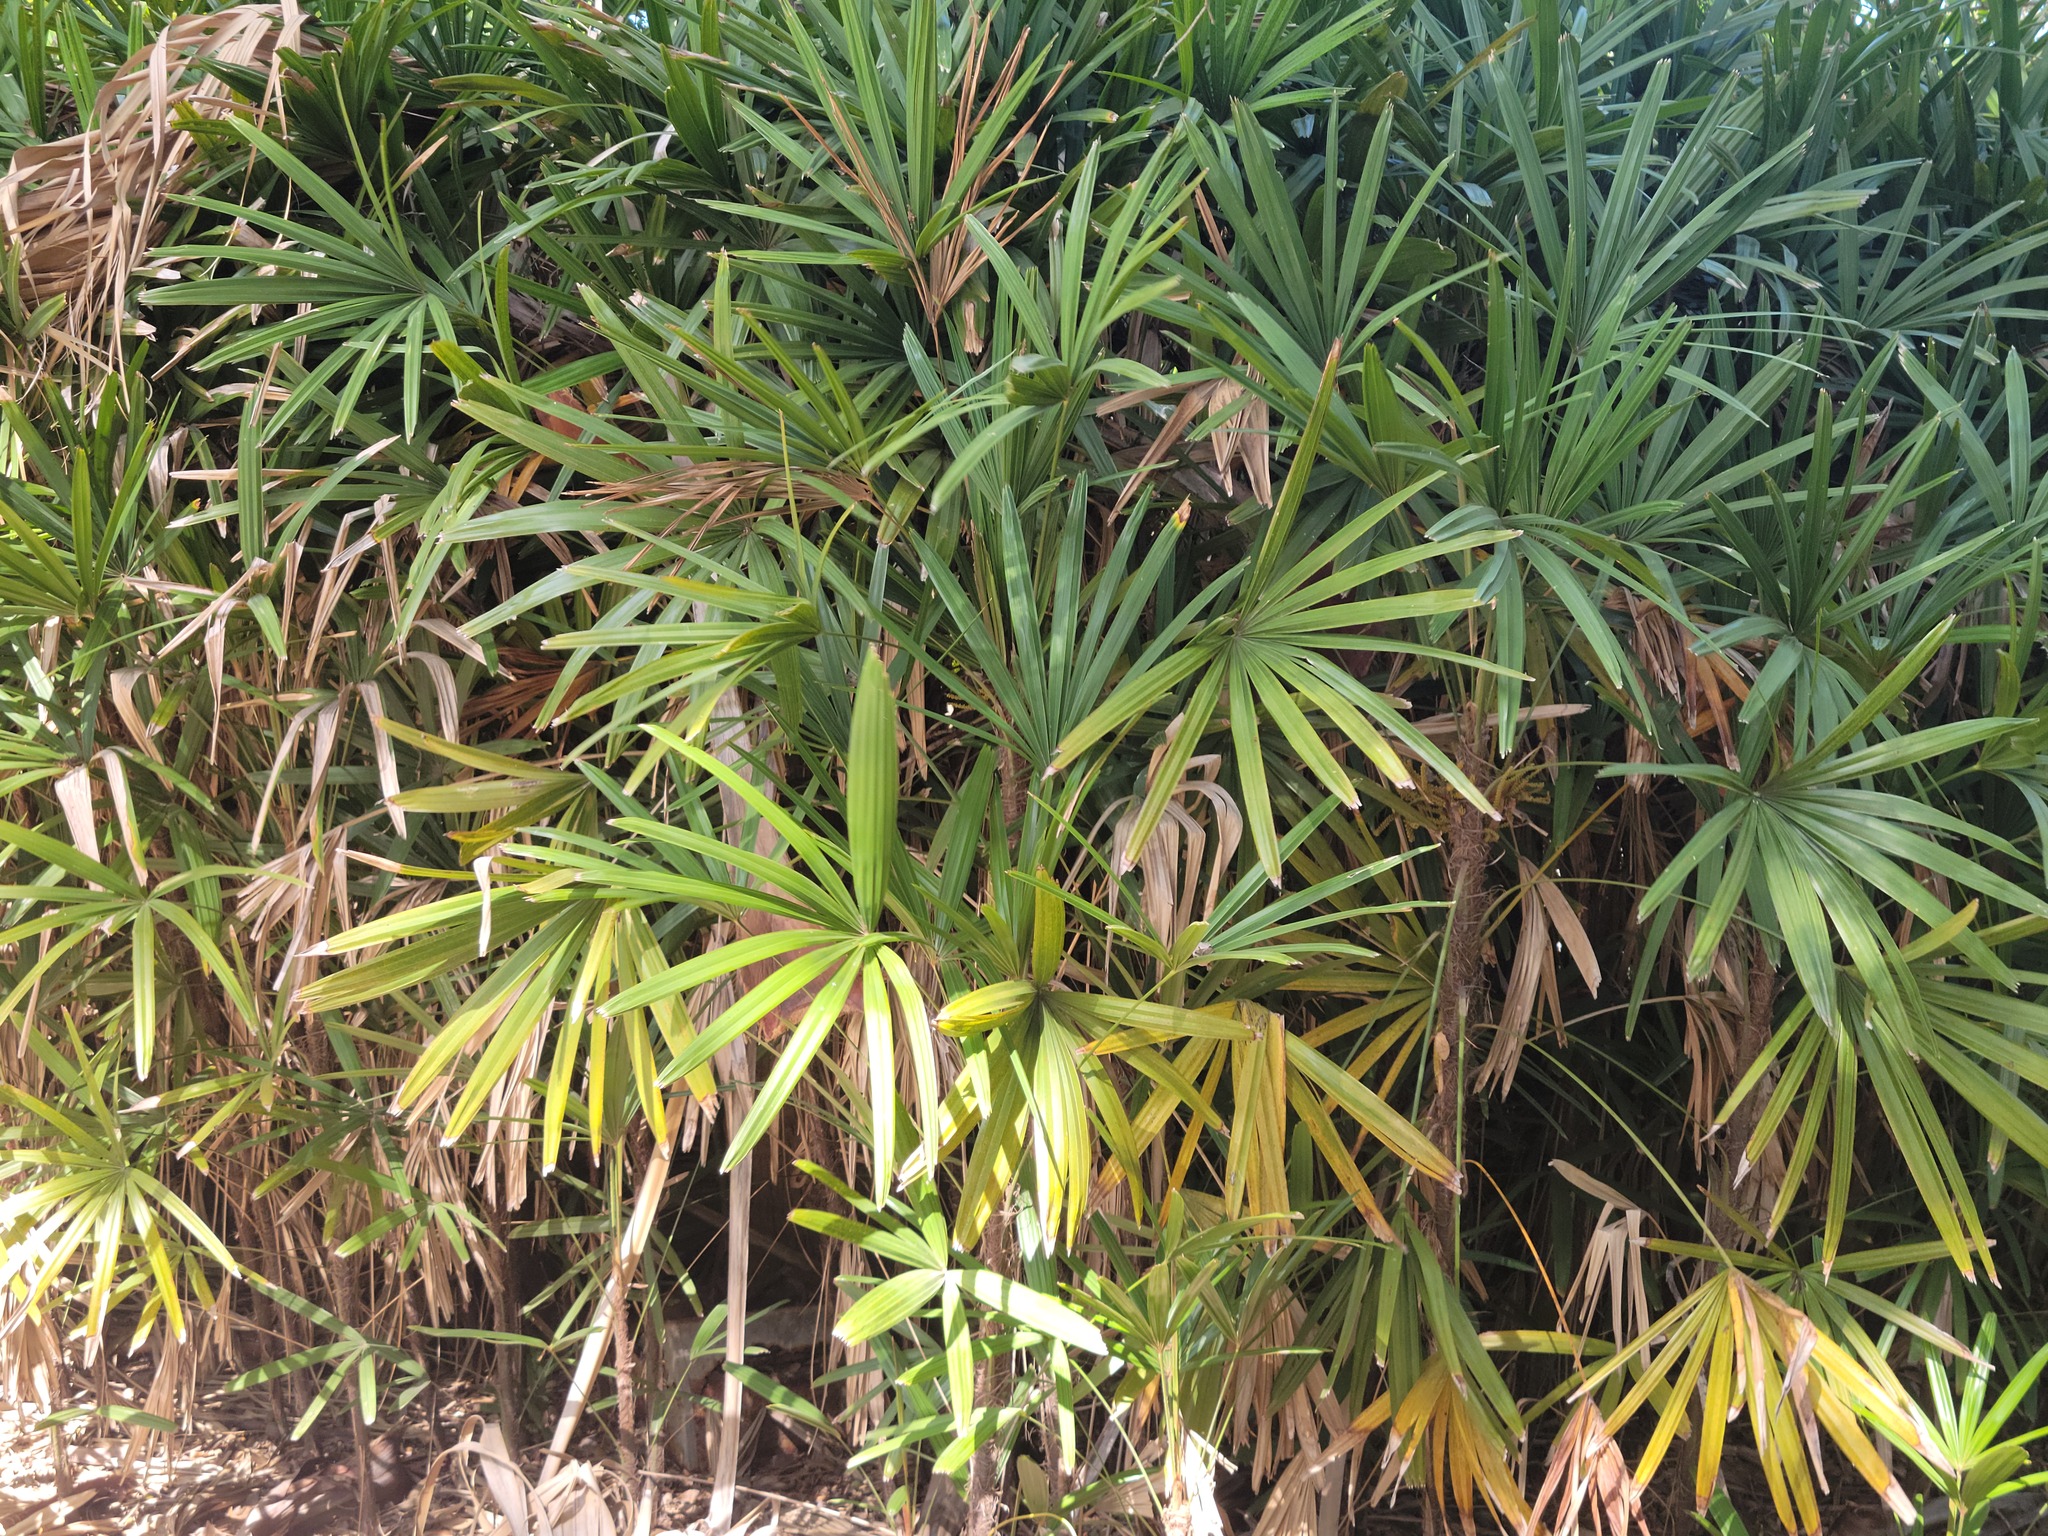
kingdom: Plantae
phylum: Tracheophyta
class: Liliopsida
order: Arecales
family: Arecaceae
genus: Rhapis
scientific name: Rhapis excelsa
